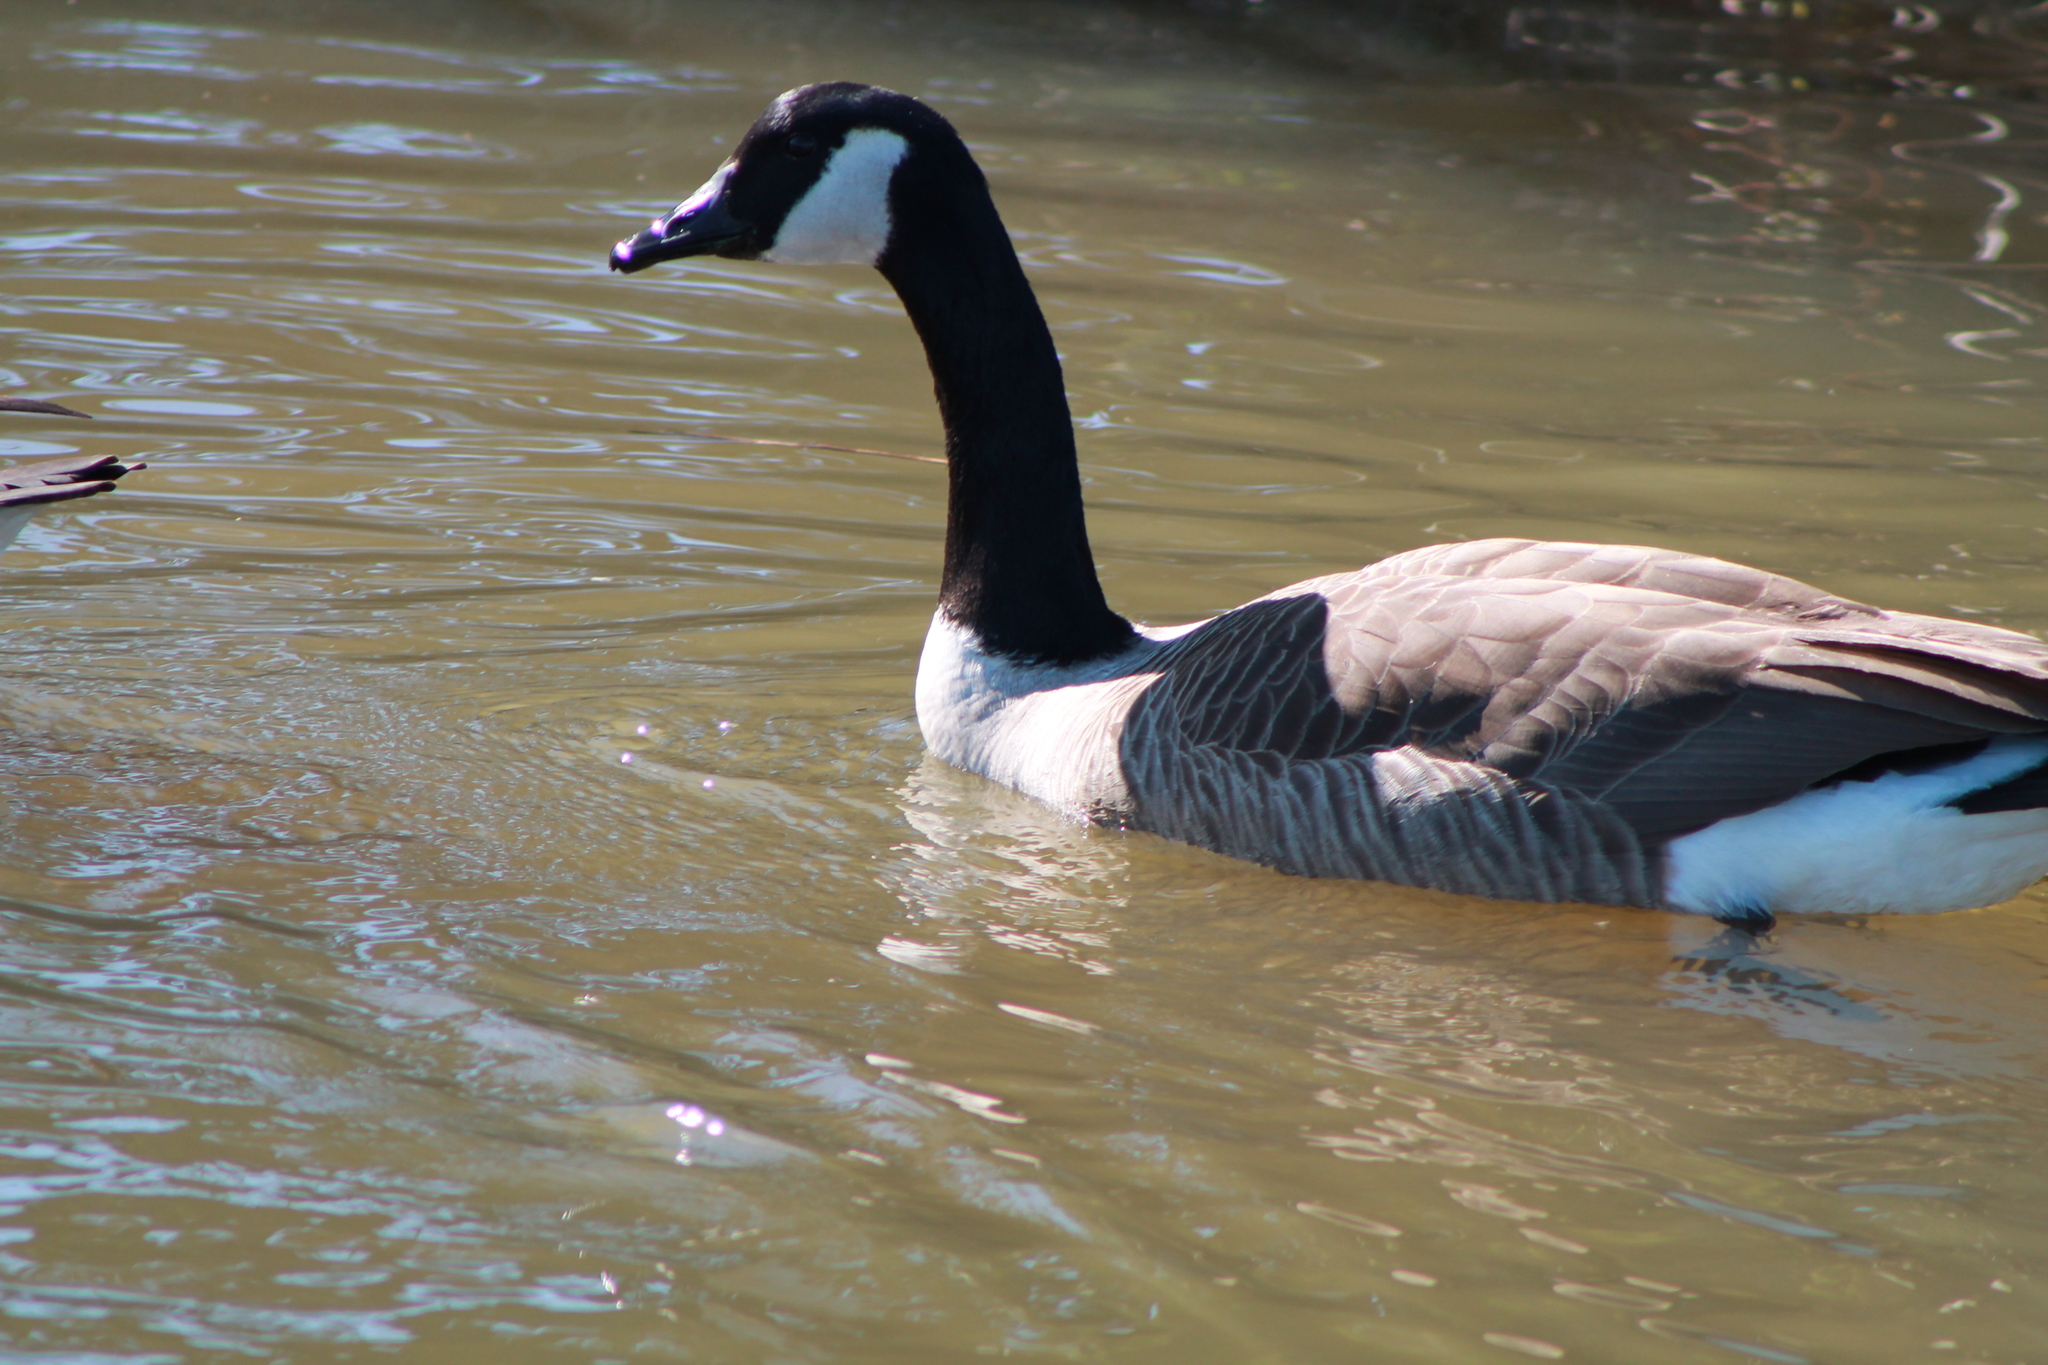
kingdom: Animalia
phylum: Chordata
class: Aves
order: Anseriformes
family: Anatidae
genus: Branta
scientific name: Branta canadensis
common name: Canada goose
